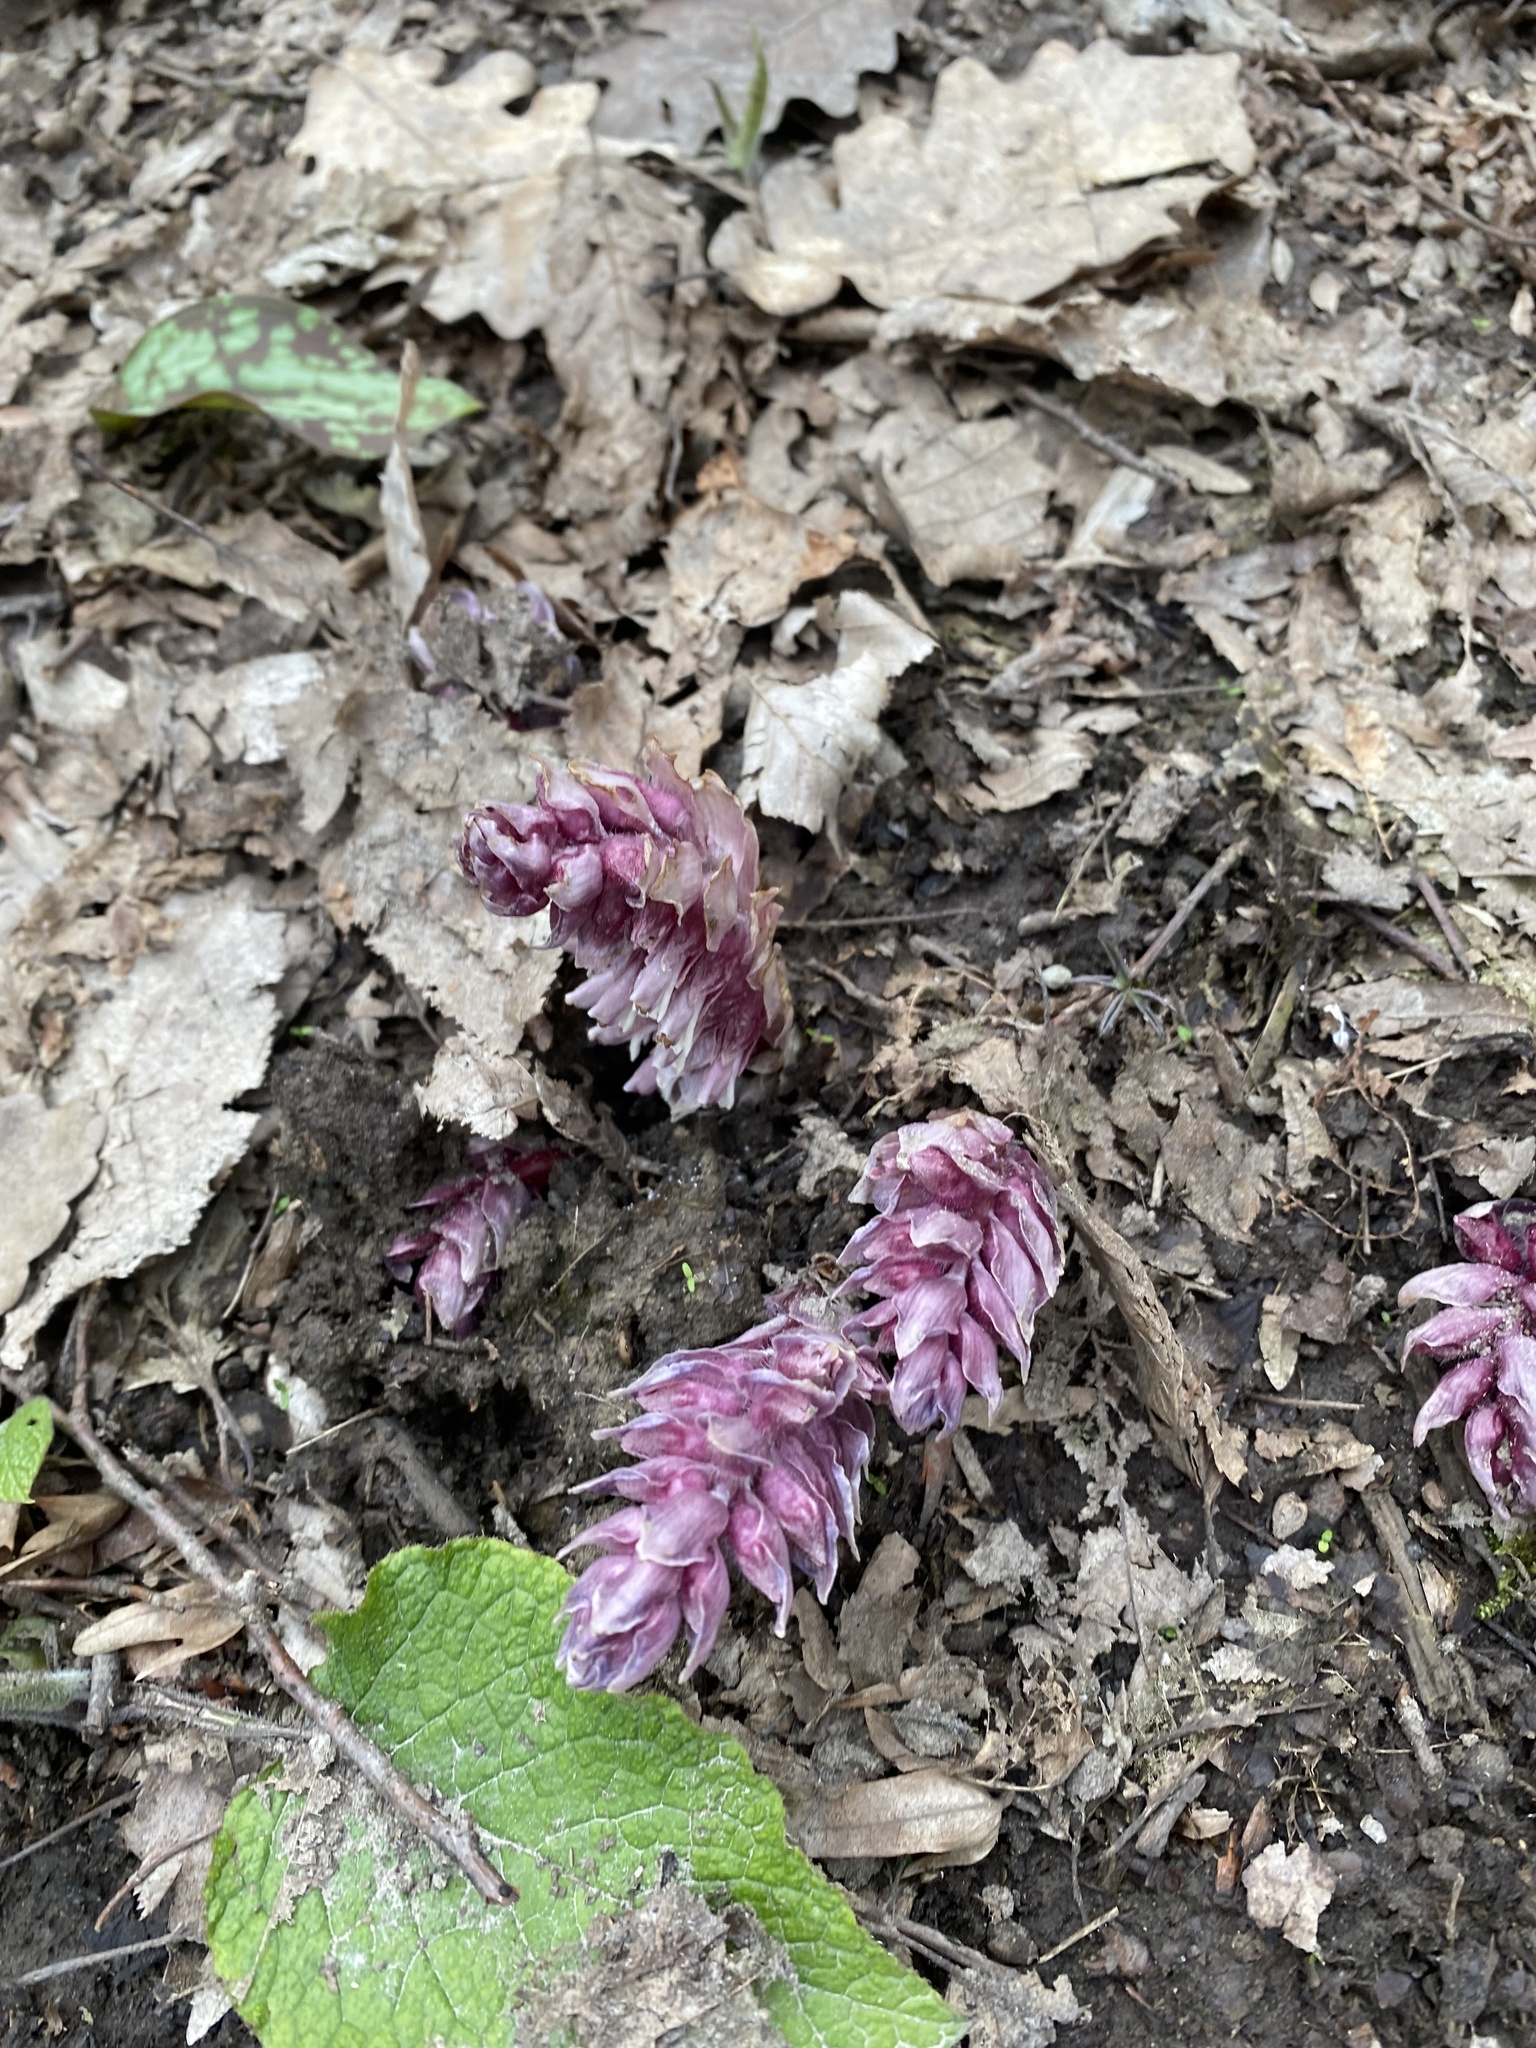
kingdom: Plantae
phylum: Tracheophyta
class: Magnoliopsida
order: Lamiales
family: Orobanchaceae
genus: Lathraea
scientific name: Lathraea squamaria
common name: Toothwort
